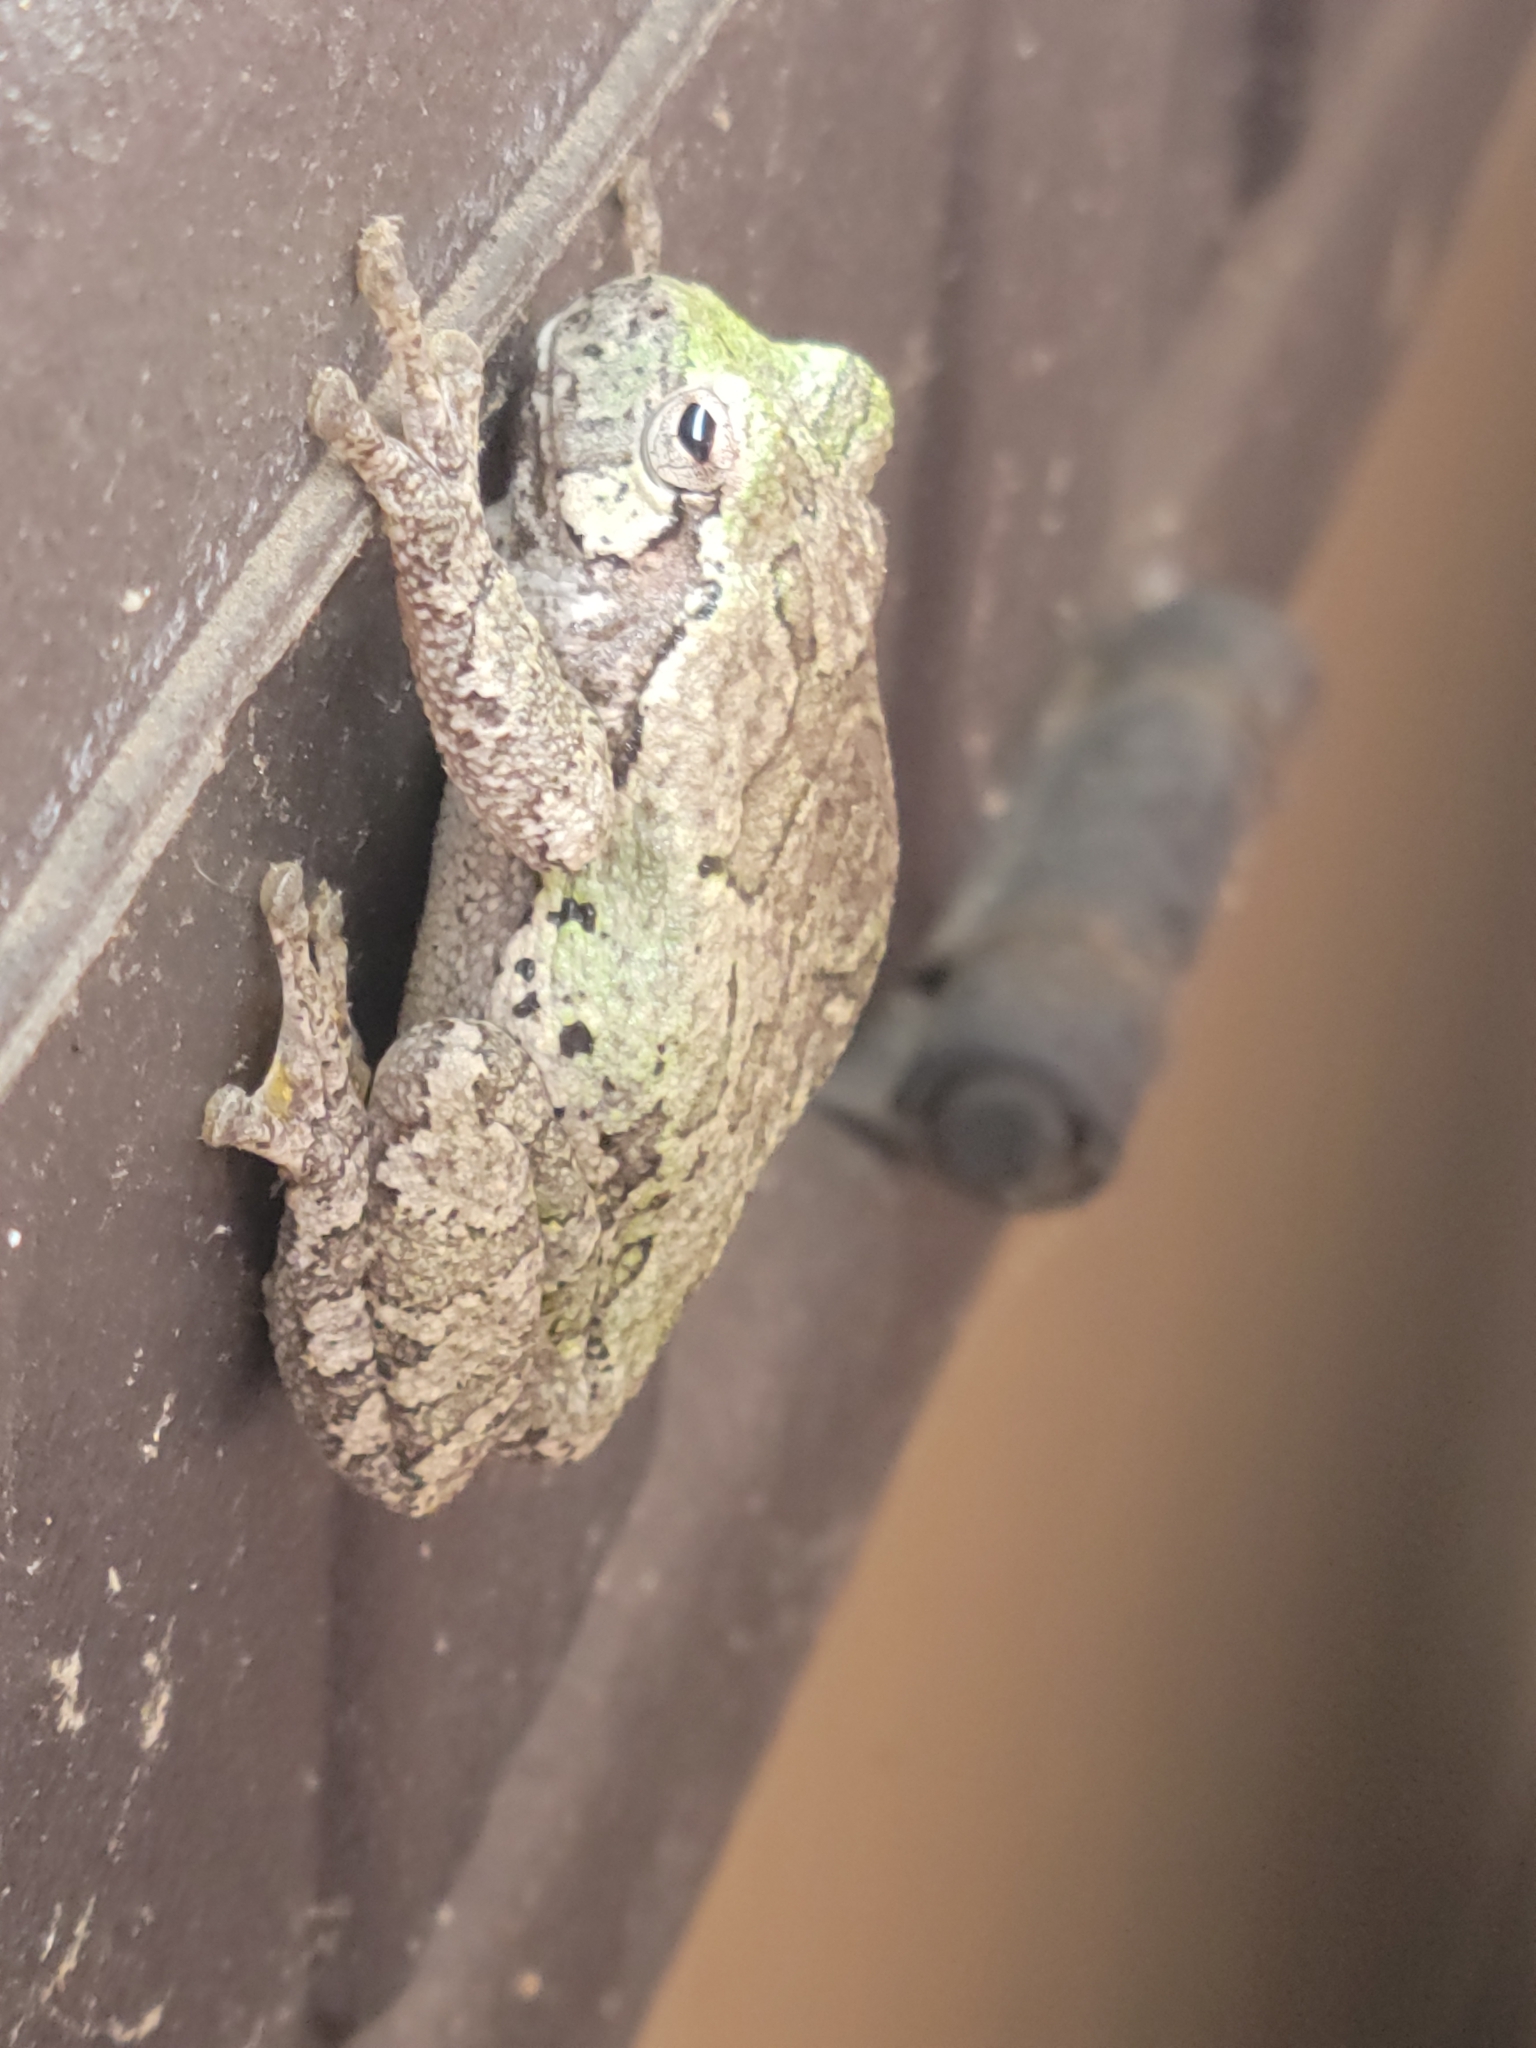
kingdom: Animalia
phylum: Chordata
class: Amphibia
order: Anura
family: Hylidae
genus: Hyla
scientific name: Hyla
